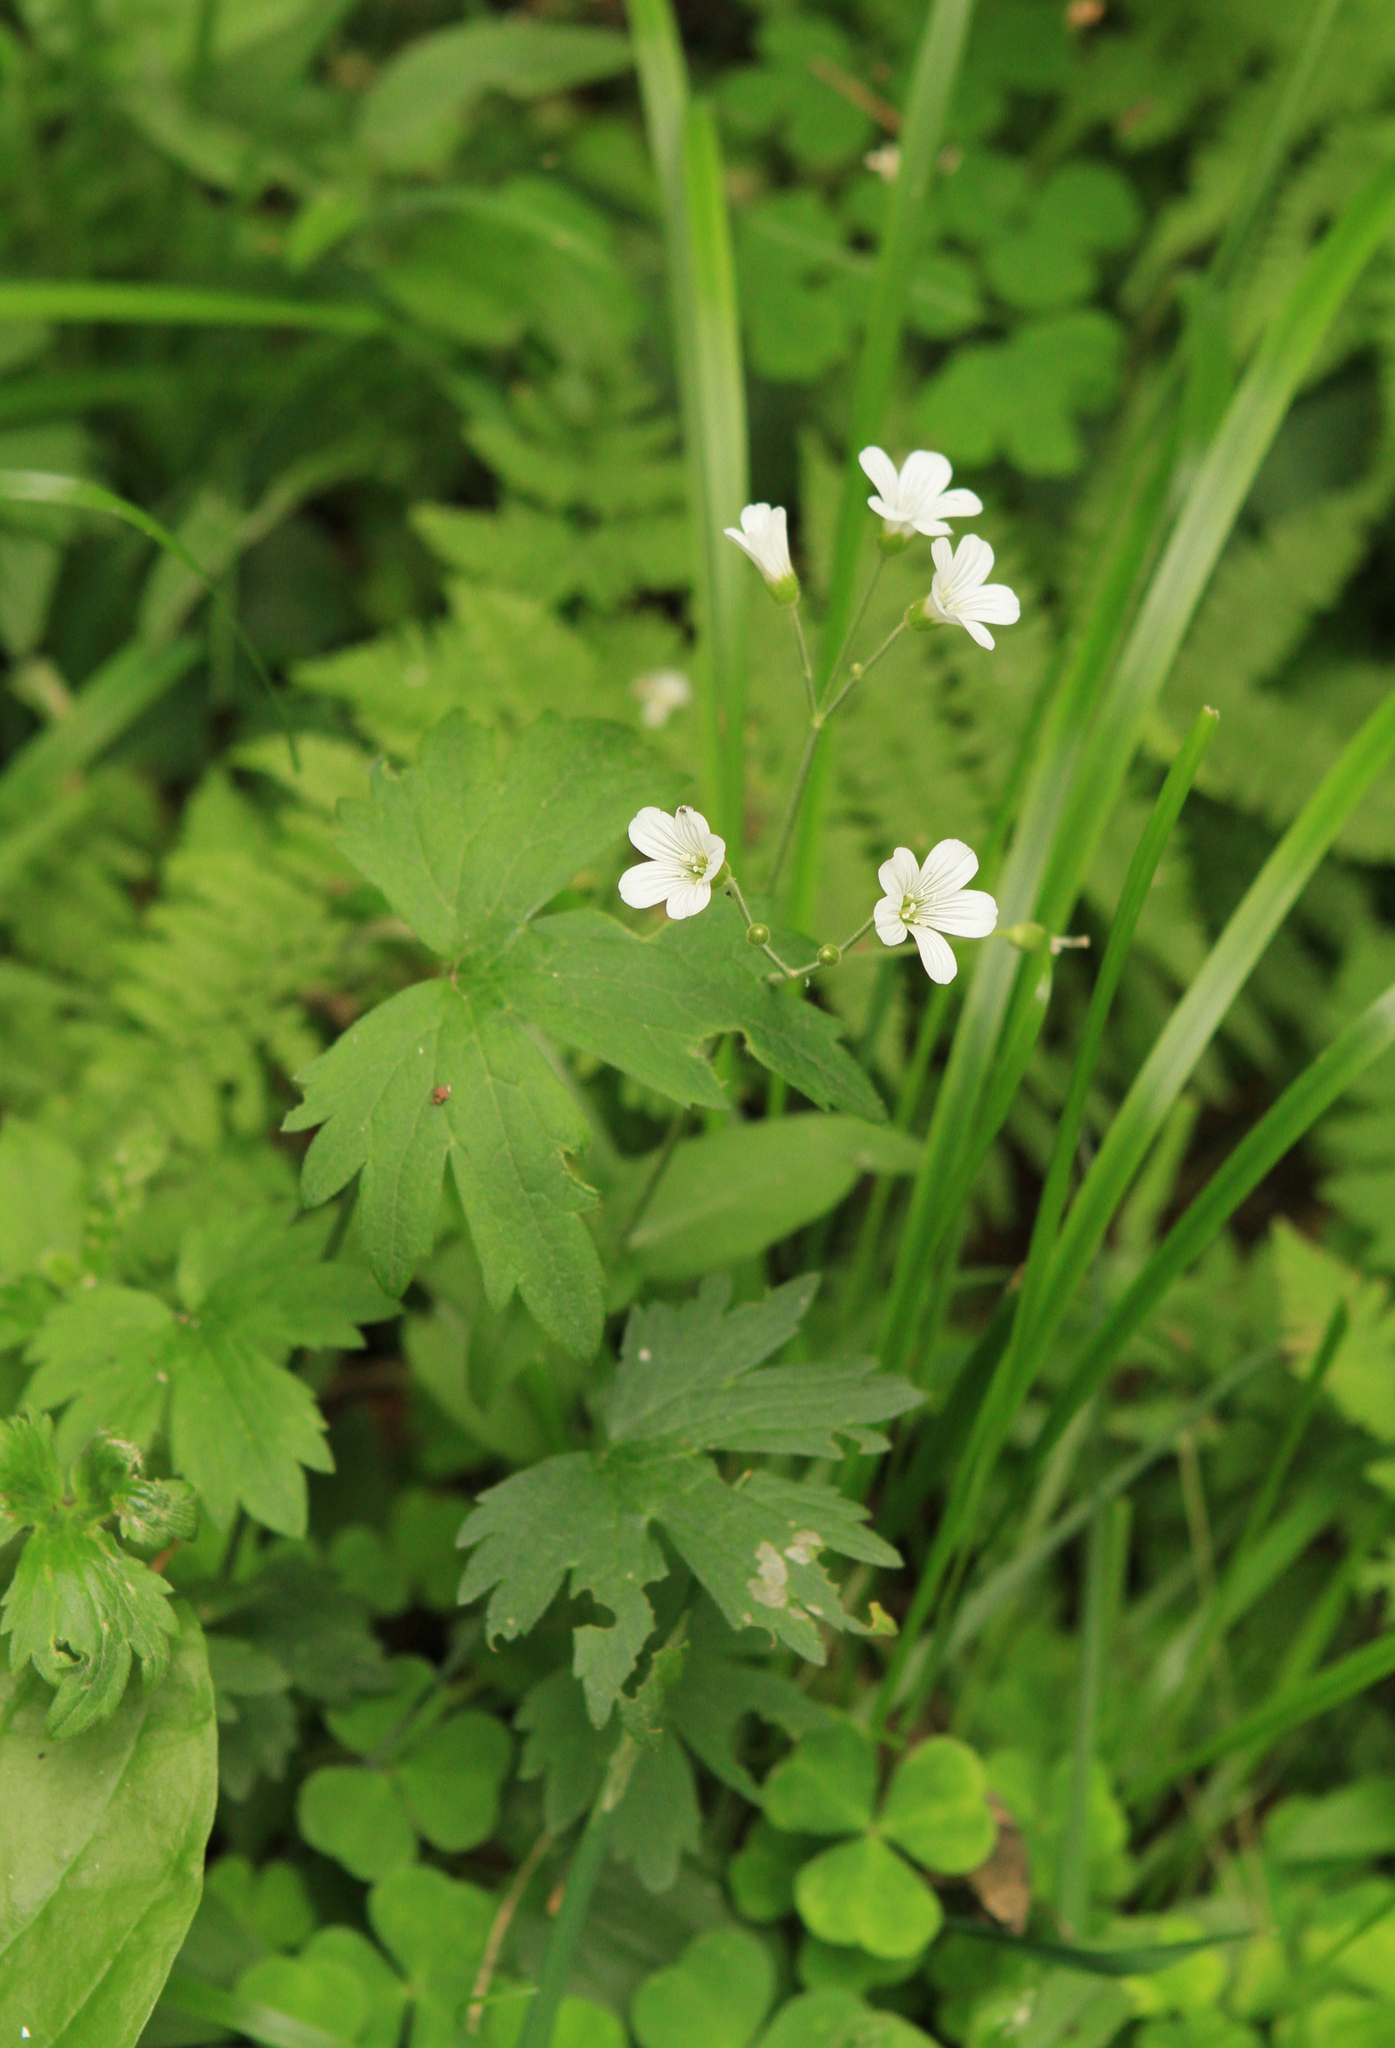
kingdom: Plantae
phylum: Tracheophyta
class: Magnoliopsida
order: Caryophyllales
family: Caryophyllaceae
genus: Cerastium
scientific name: Cerastium pauciflorum
